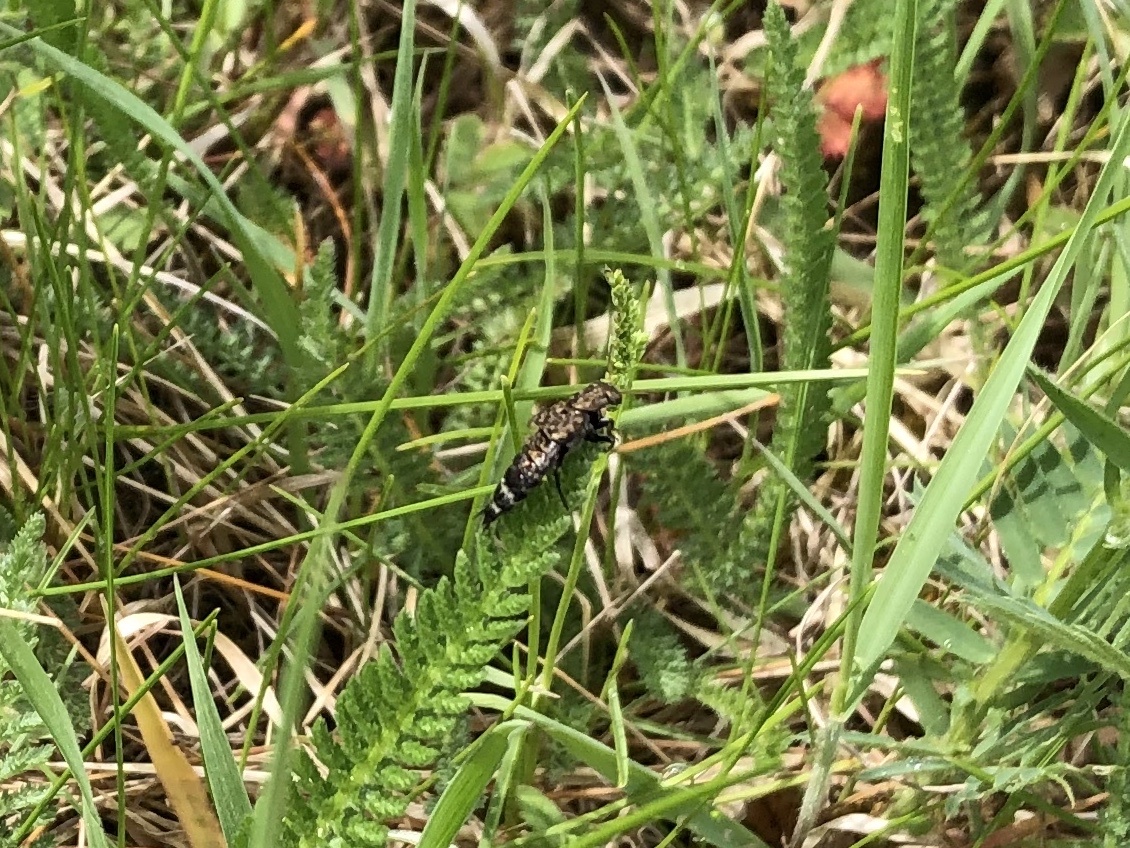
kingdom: Animalia
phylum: Arthropoda
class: Insecta
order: Coleoptera
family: Staphylinidae
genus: Ontholestes
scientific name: Ontholestes murinus
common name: Staph beetle
